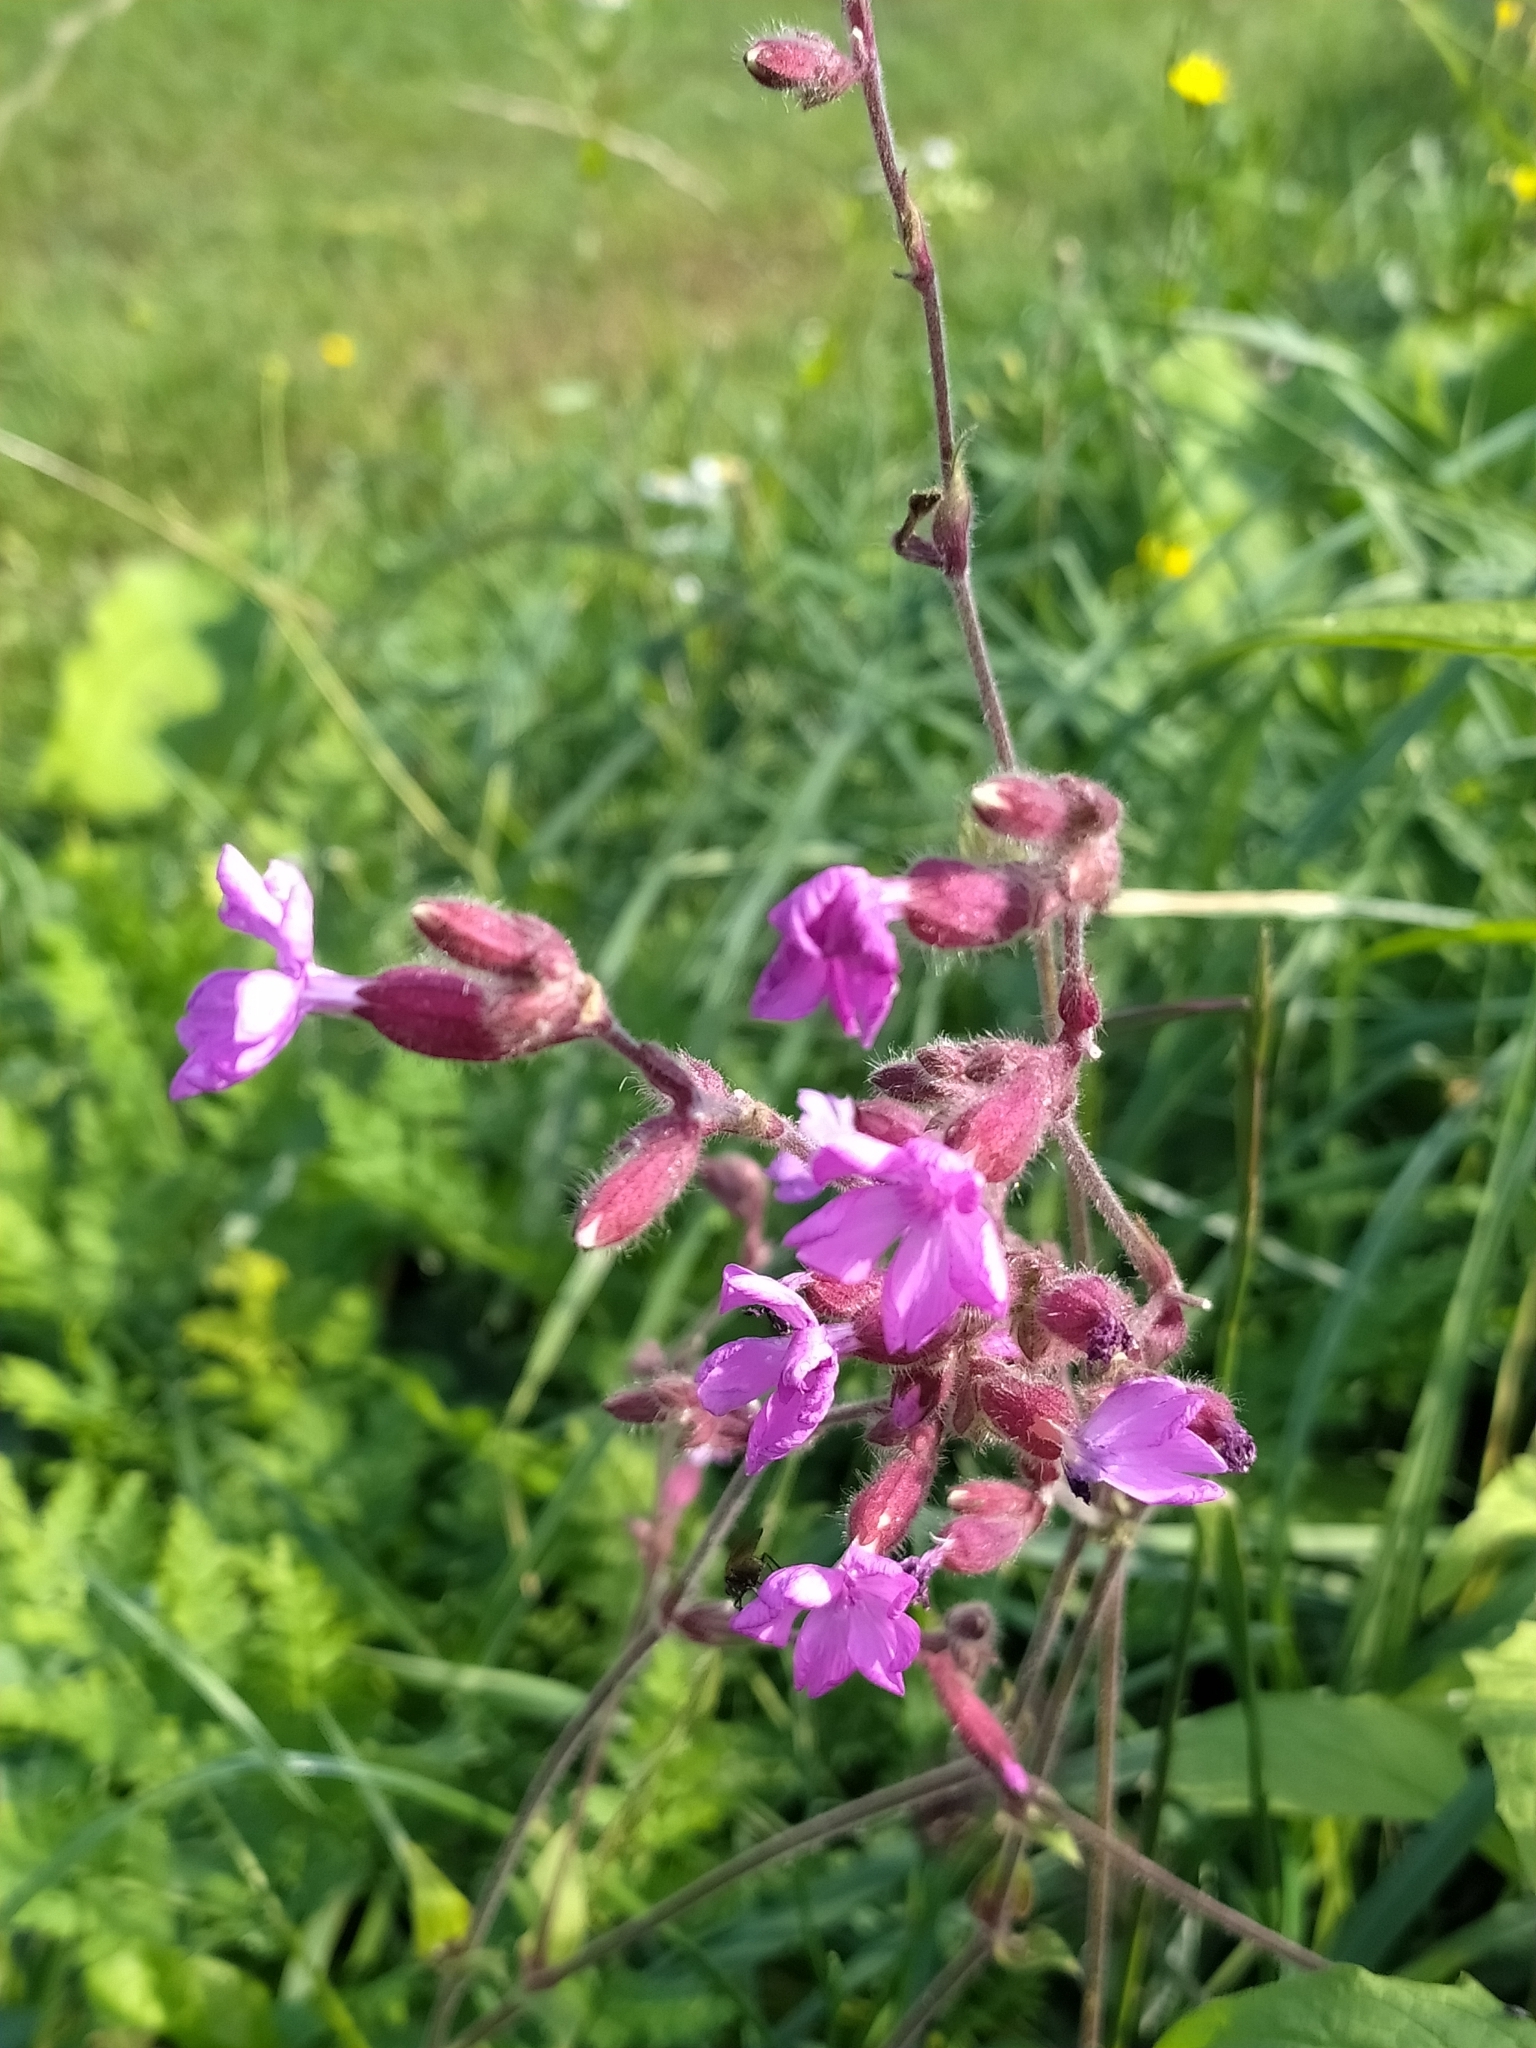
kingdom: Plantae
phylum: Tracheophyta
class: Magnoliopsida
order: Caryophyllales
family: Caryophyllaceae
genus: Silene
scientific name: Silene dioica
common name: Red campion
